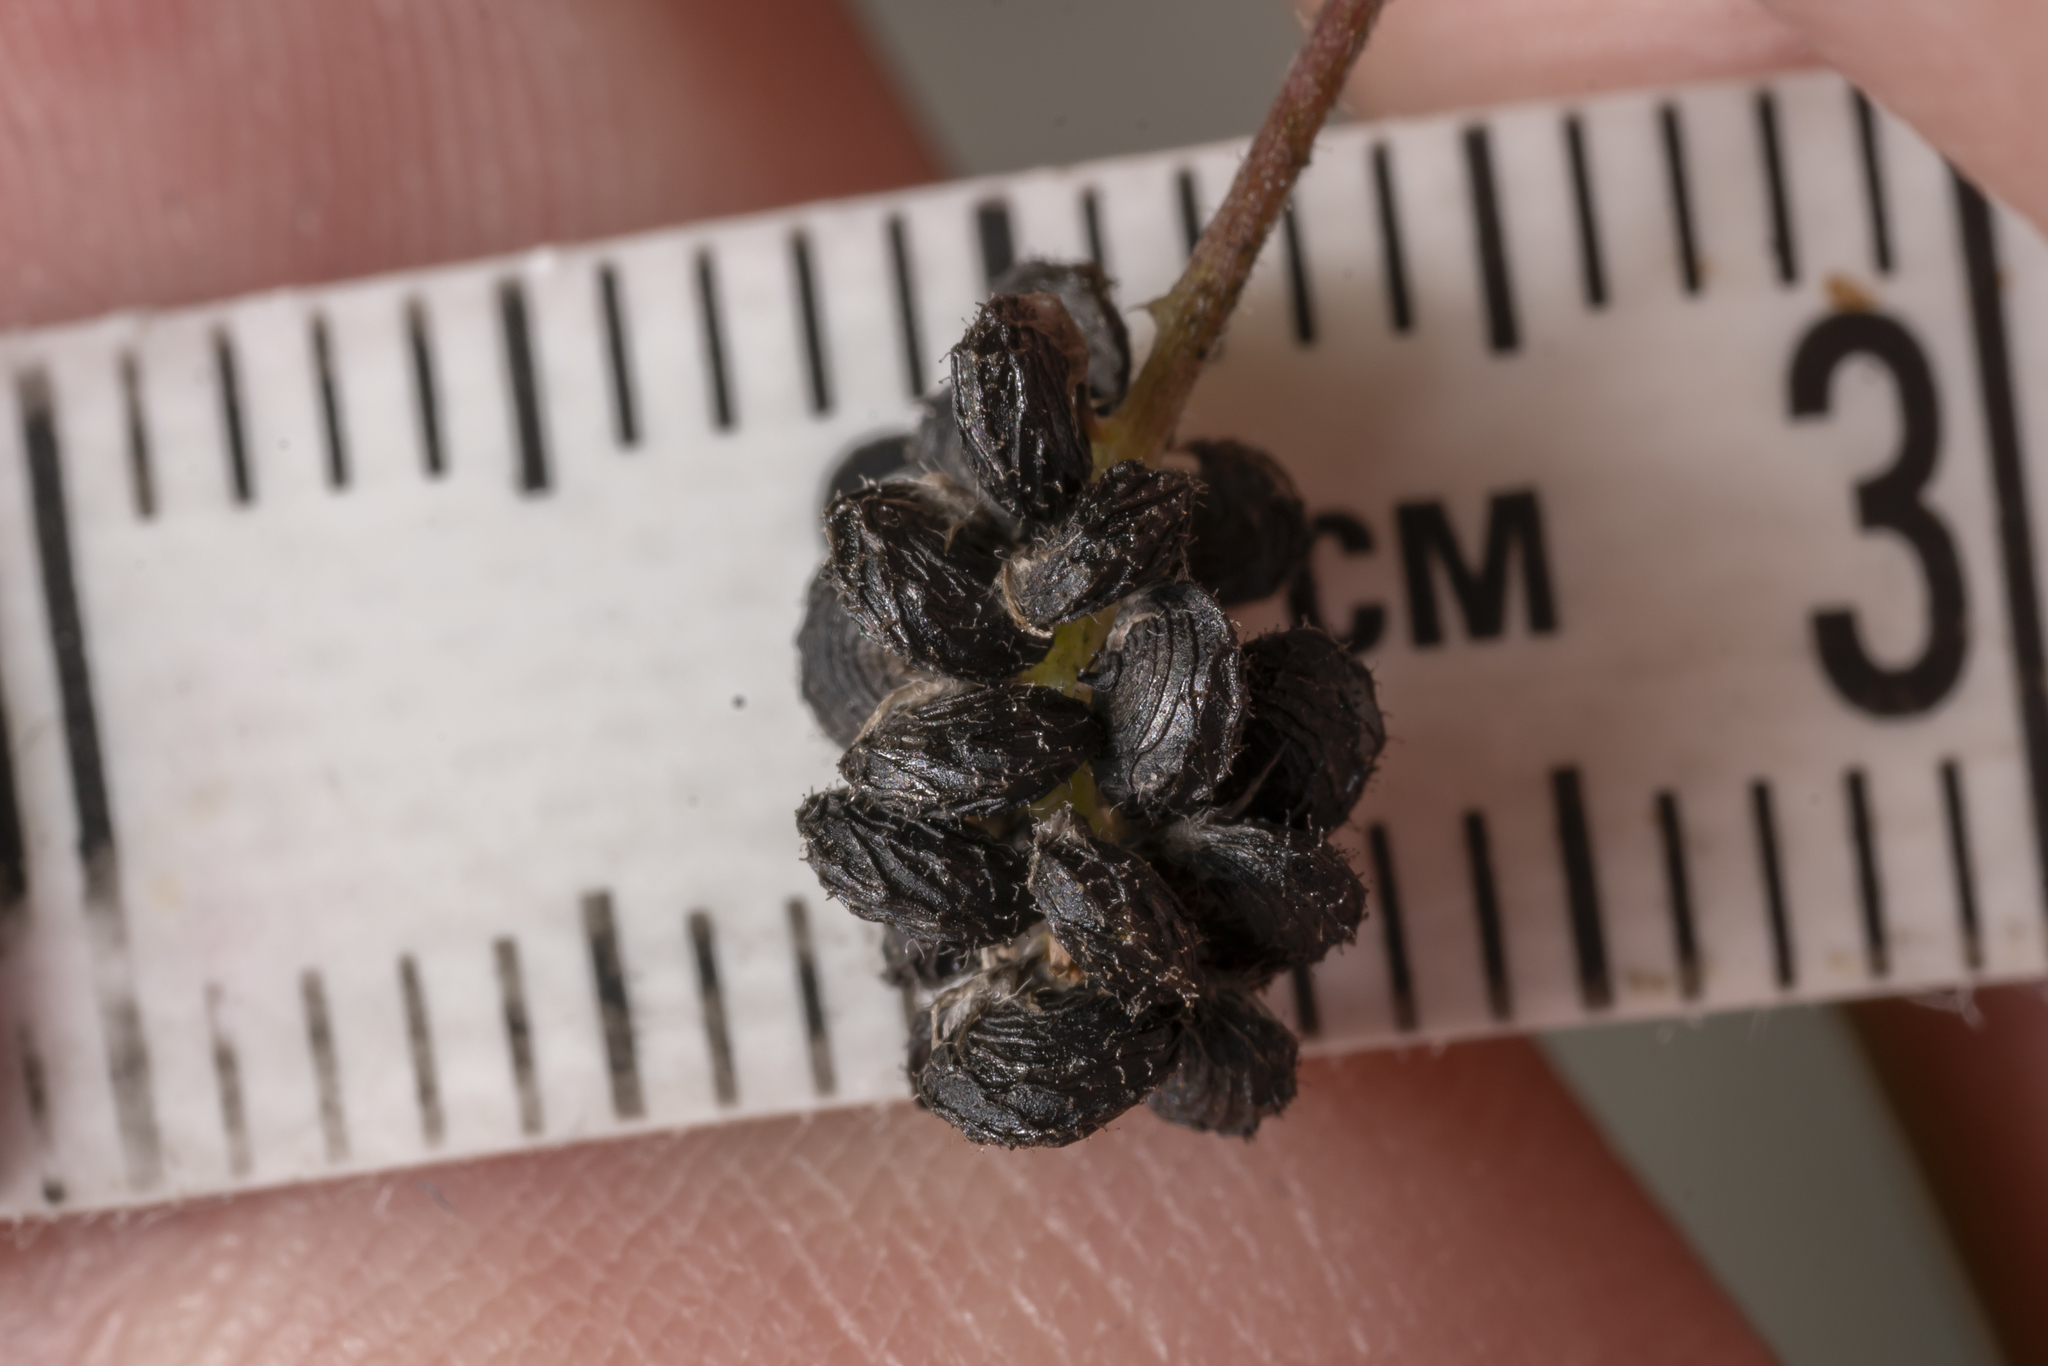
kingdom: Plantae
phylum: Tracheophyta
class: Magnoliopsida
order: Fabales
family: Fabaceae
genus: Medicago
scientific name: Medicago lupulina
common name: Black medick
